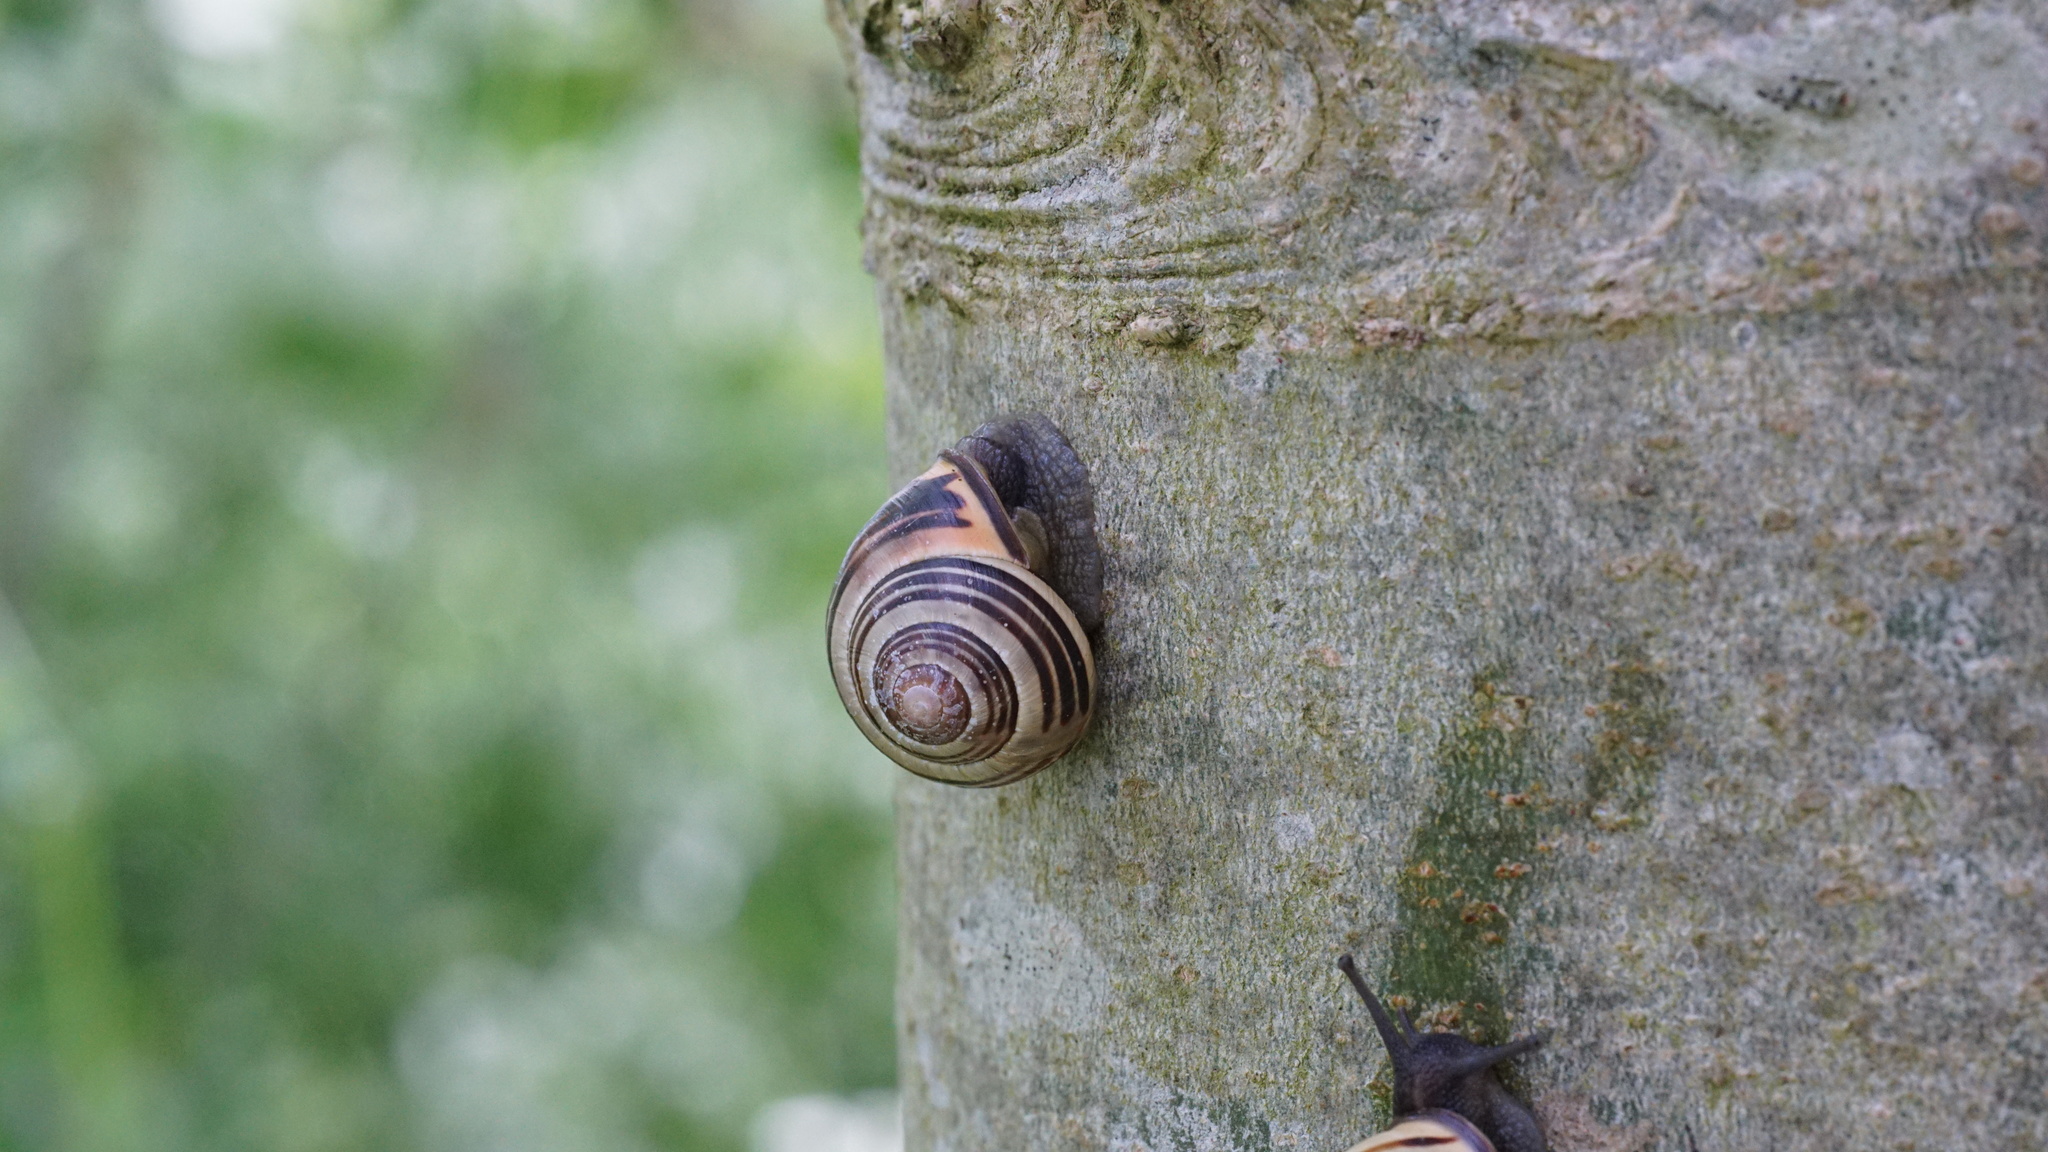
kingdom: Animalia
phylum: Mollusca
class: Gastropoda
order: Stylommatophora
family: Helicidae
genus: Cepaea
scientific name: Cepaea nemoralis
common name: Grovesnail
